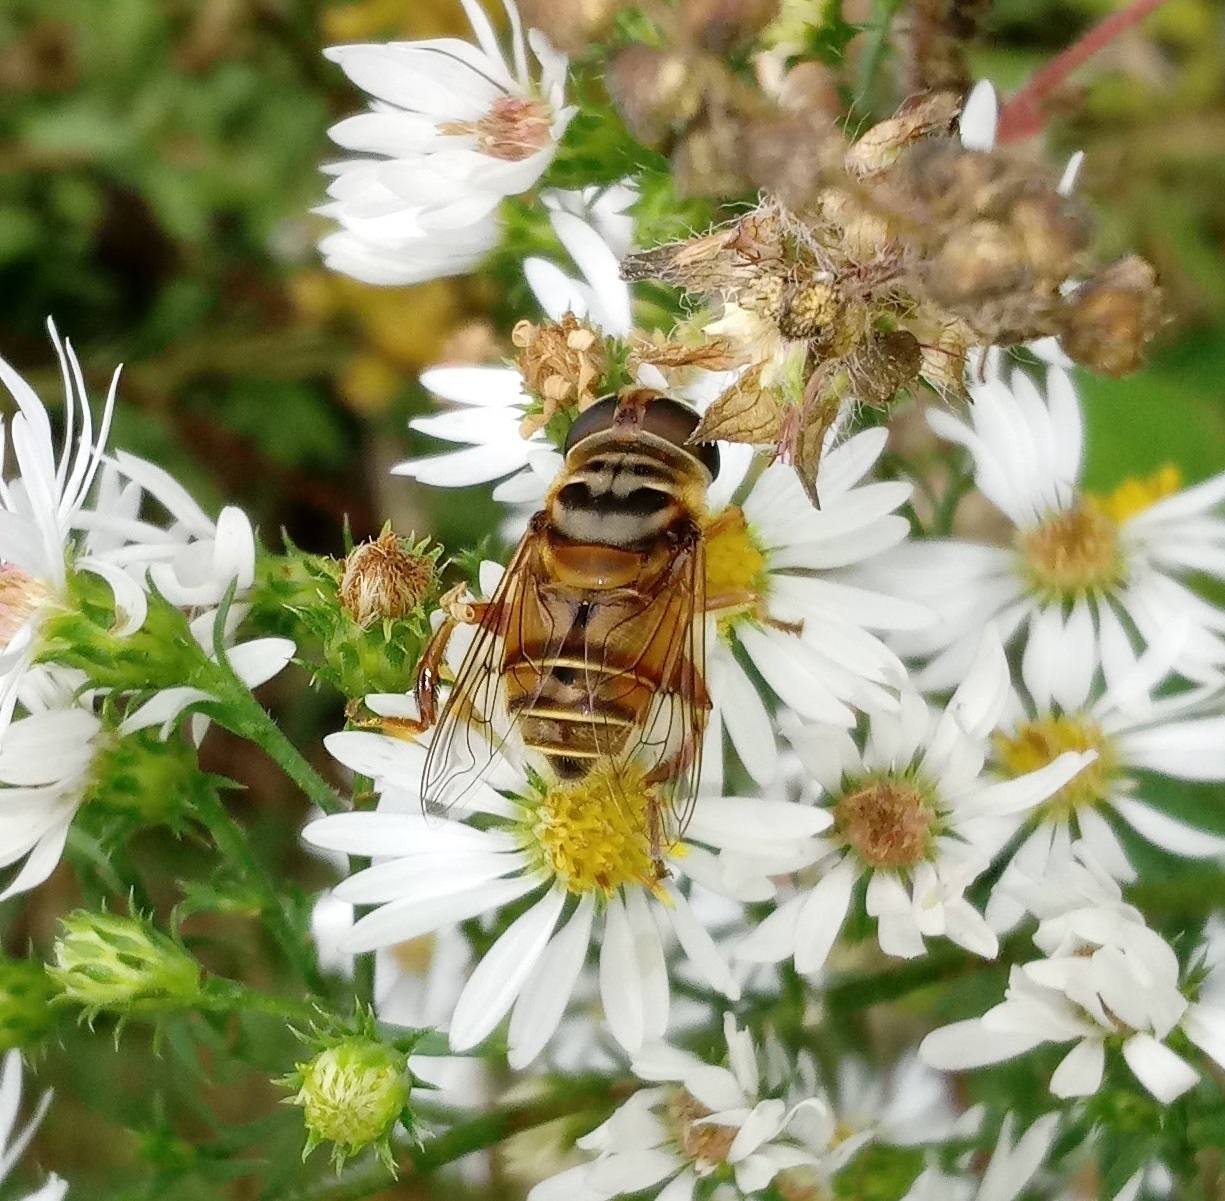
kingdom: Animalia
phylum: Arthropoda
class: Insecta
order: Diptera
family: Syrphidae
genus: Palpada
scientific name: Palpada vinetorum
